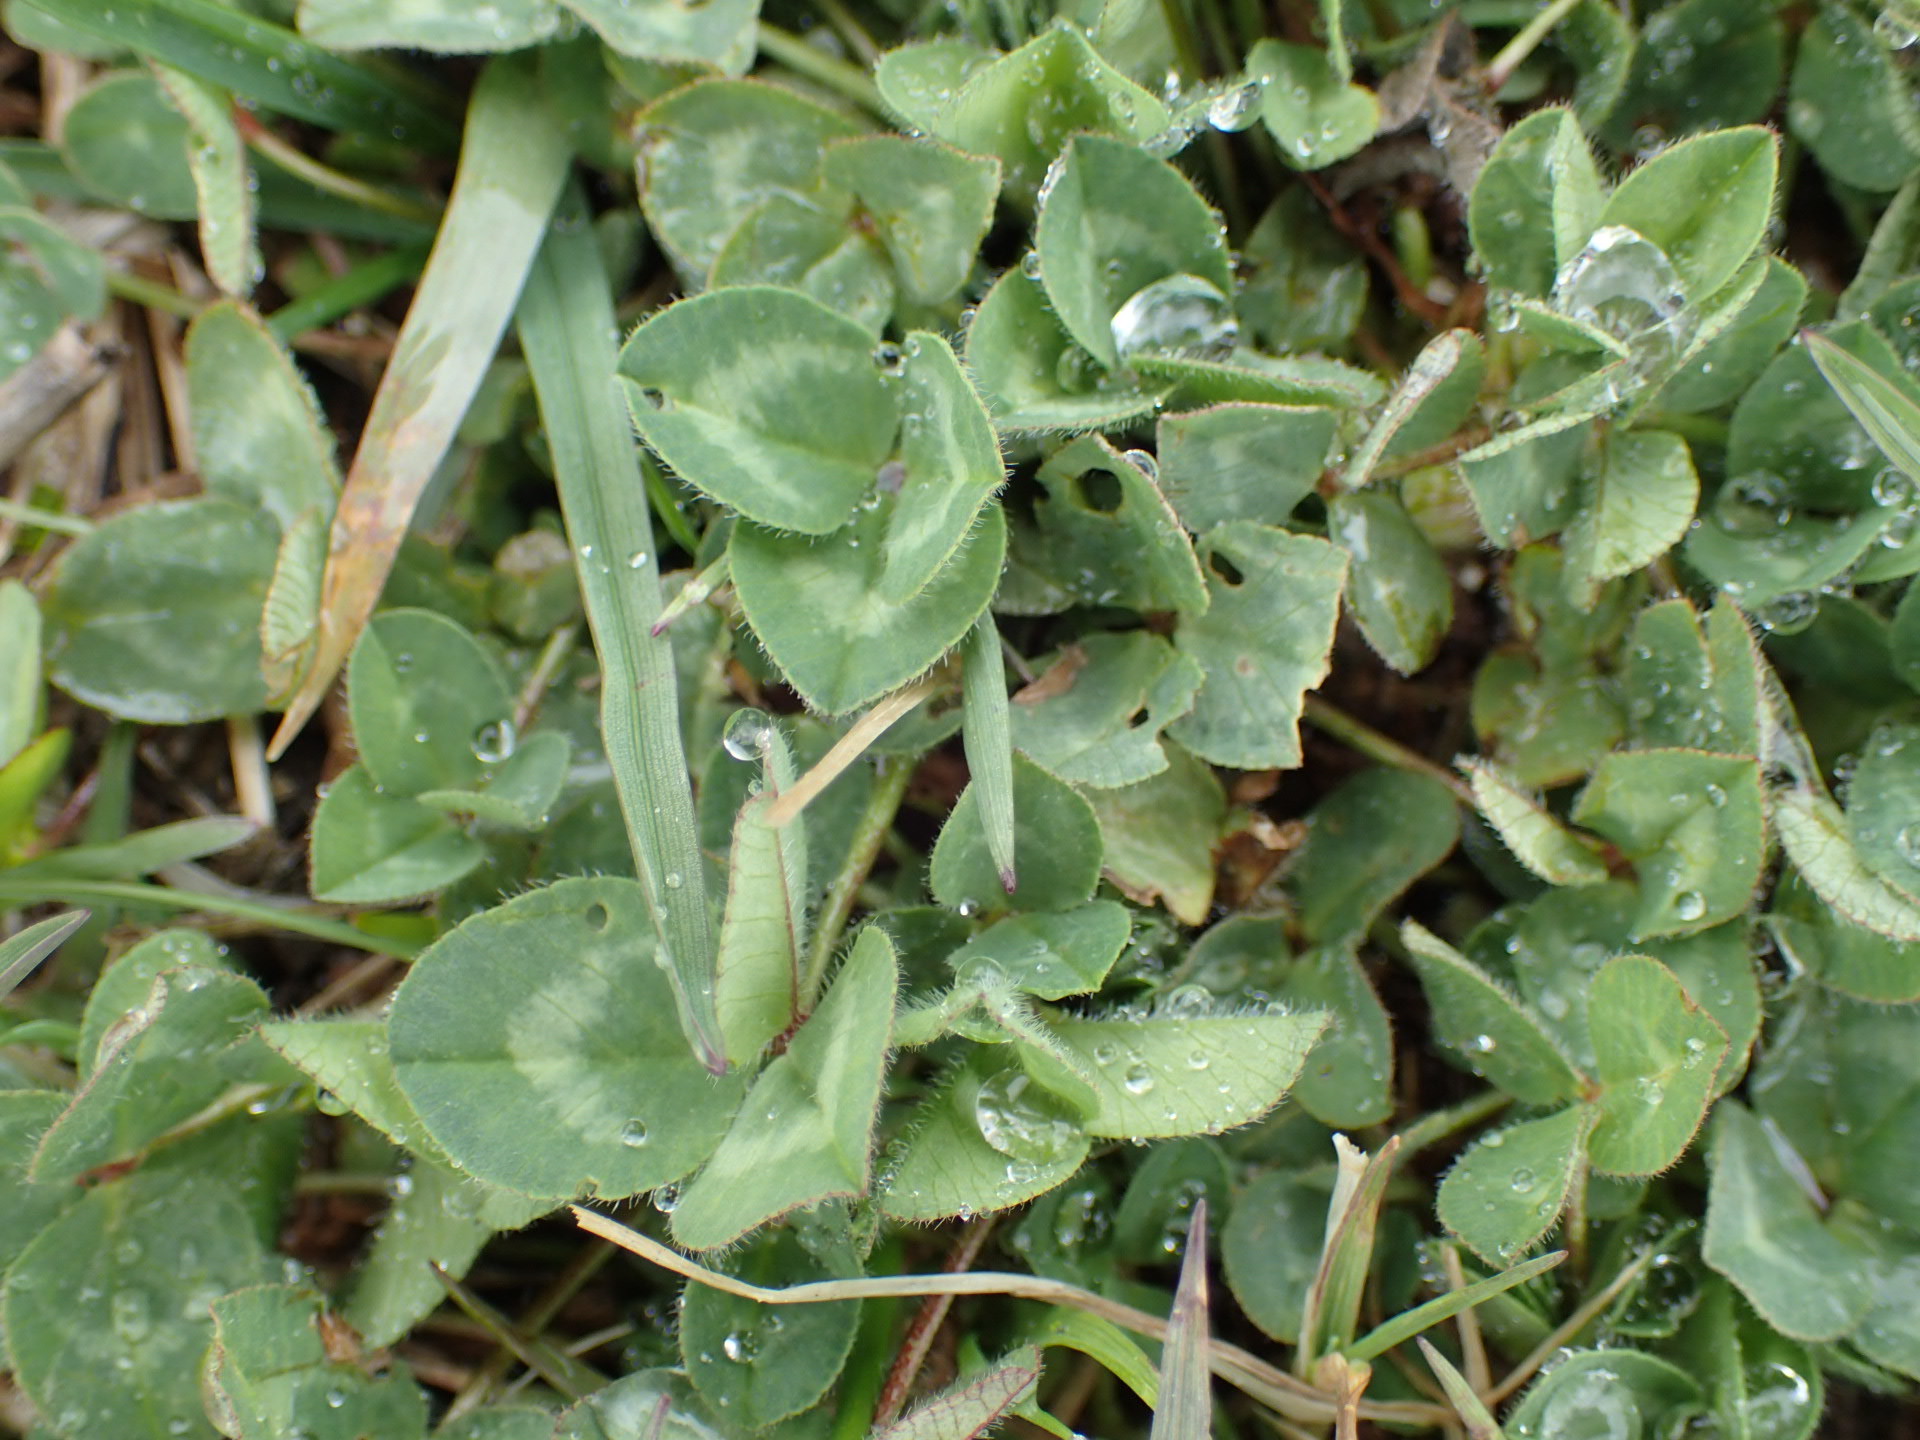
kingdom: Plantae
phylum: Tracheophyta
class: Magnoliopsida
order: Fabales
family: Fabaceae
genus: Trifolium
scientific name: Trifolium pratense
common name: Red clover
